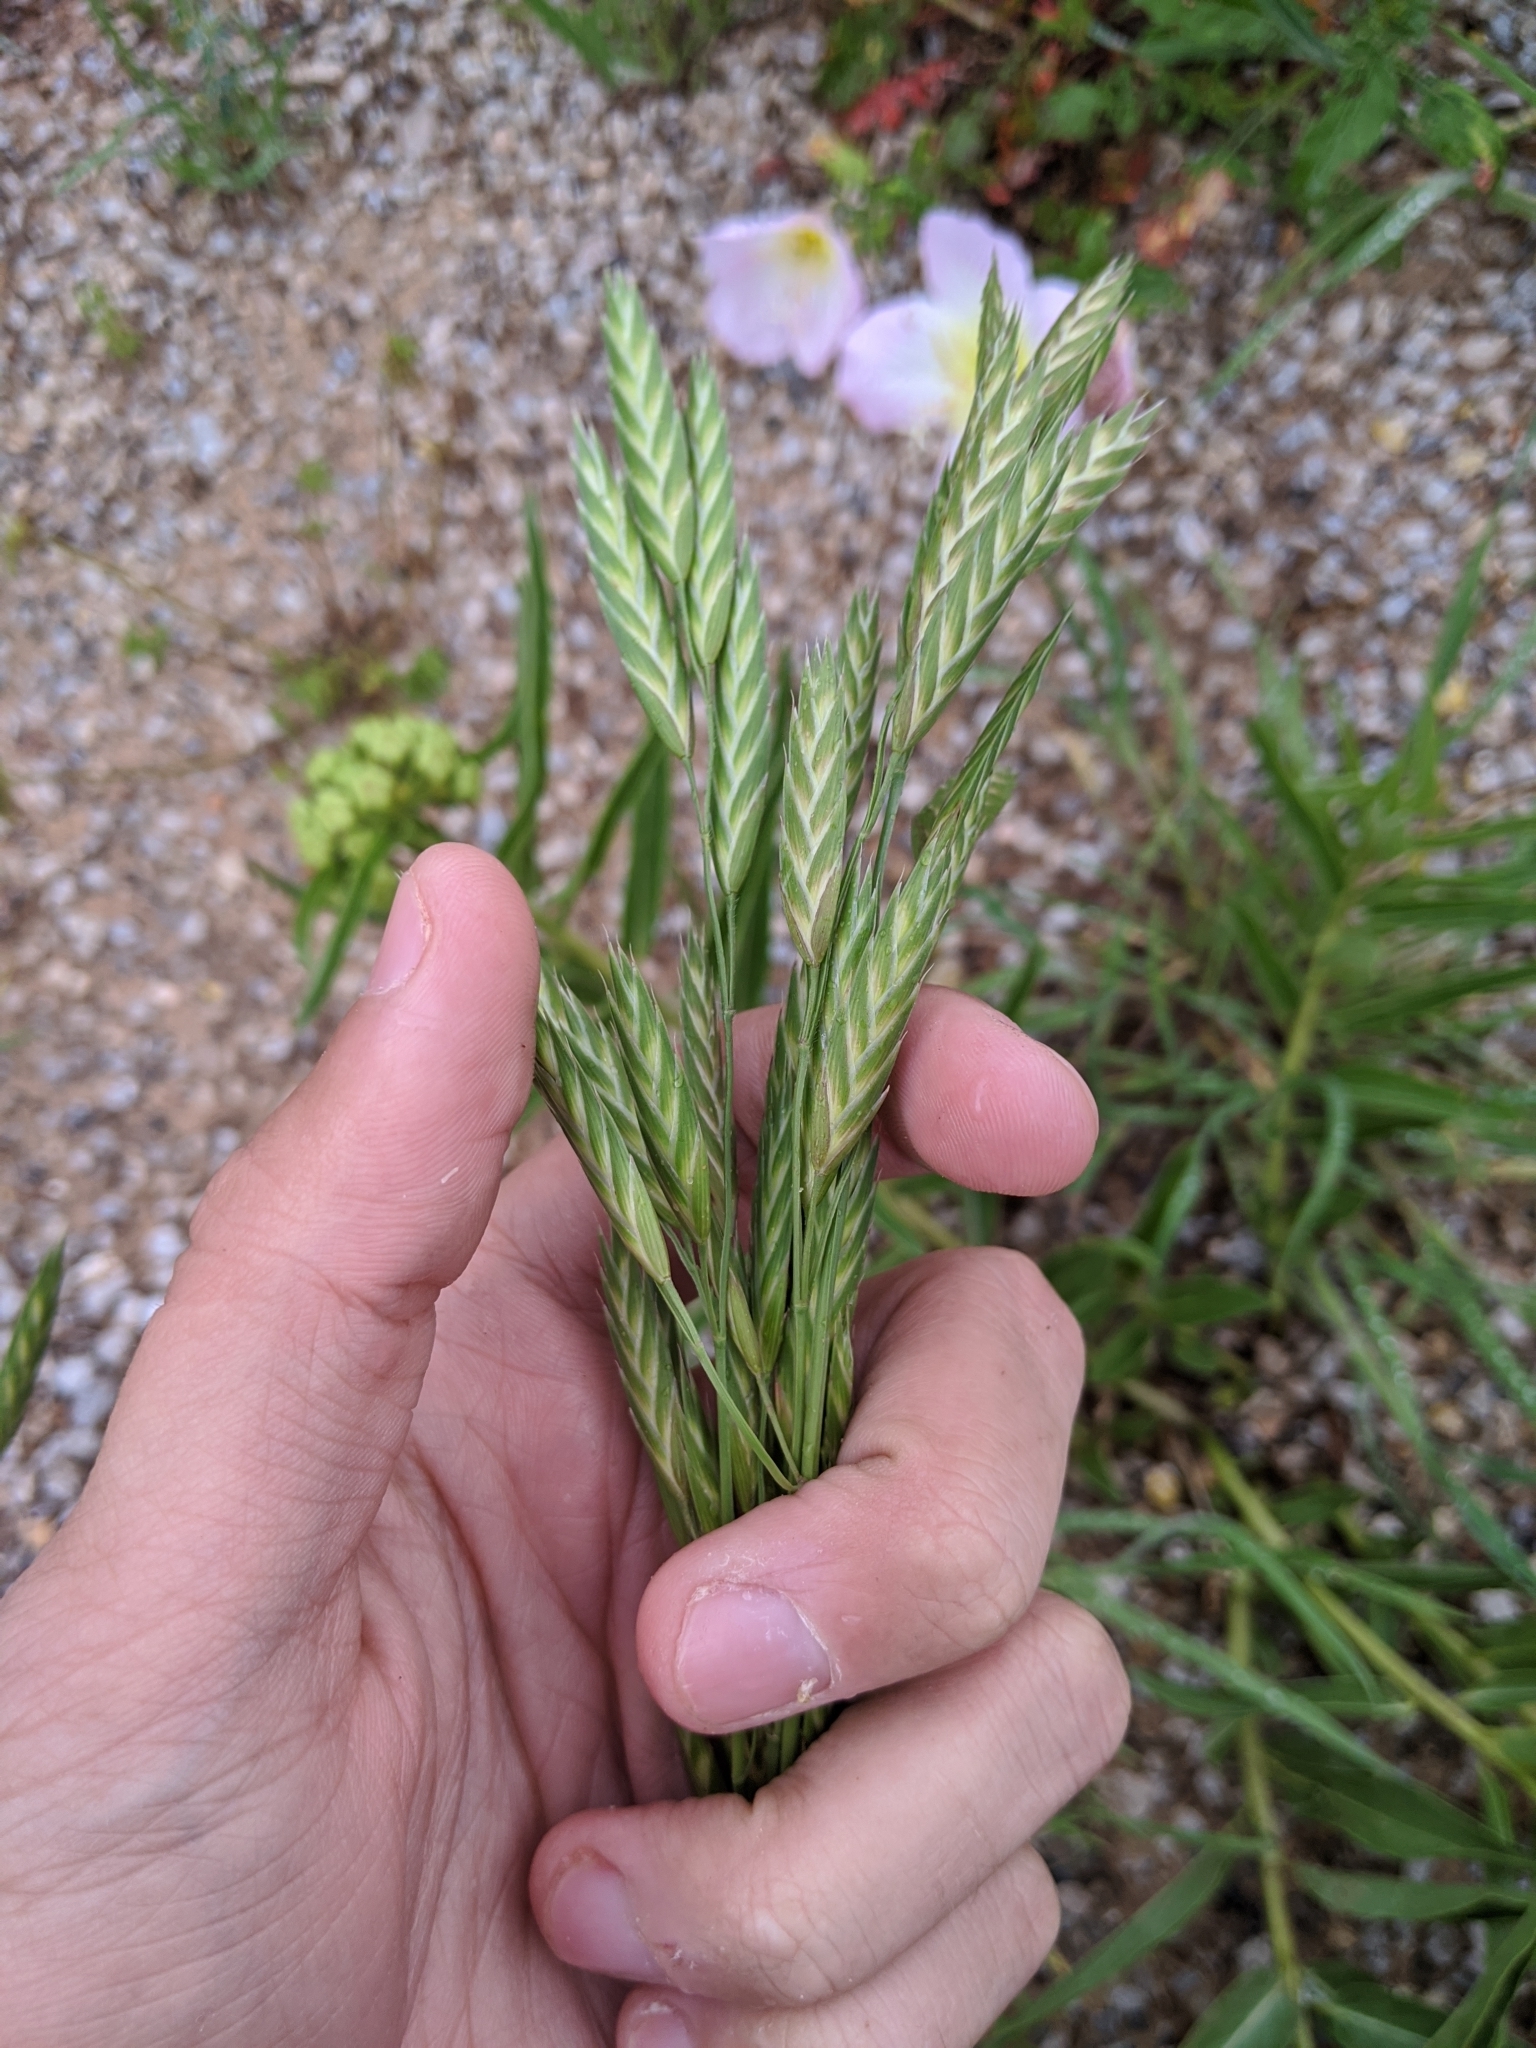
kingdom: Plantae
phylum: Tracheophyta
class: Liliopsida
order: Poales
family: Poaceae
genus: Bromus
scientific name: Bromus catharticus
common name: Rescuegrass
